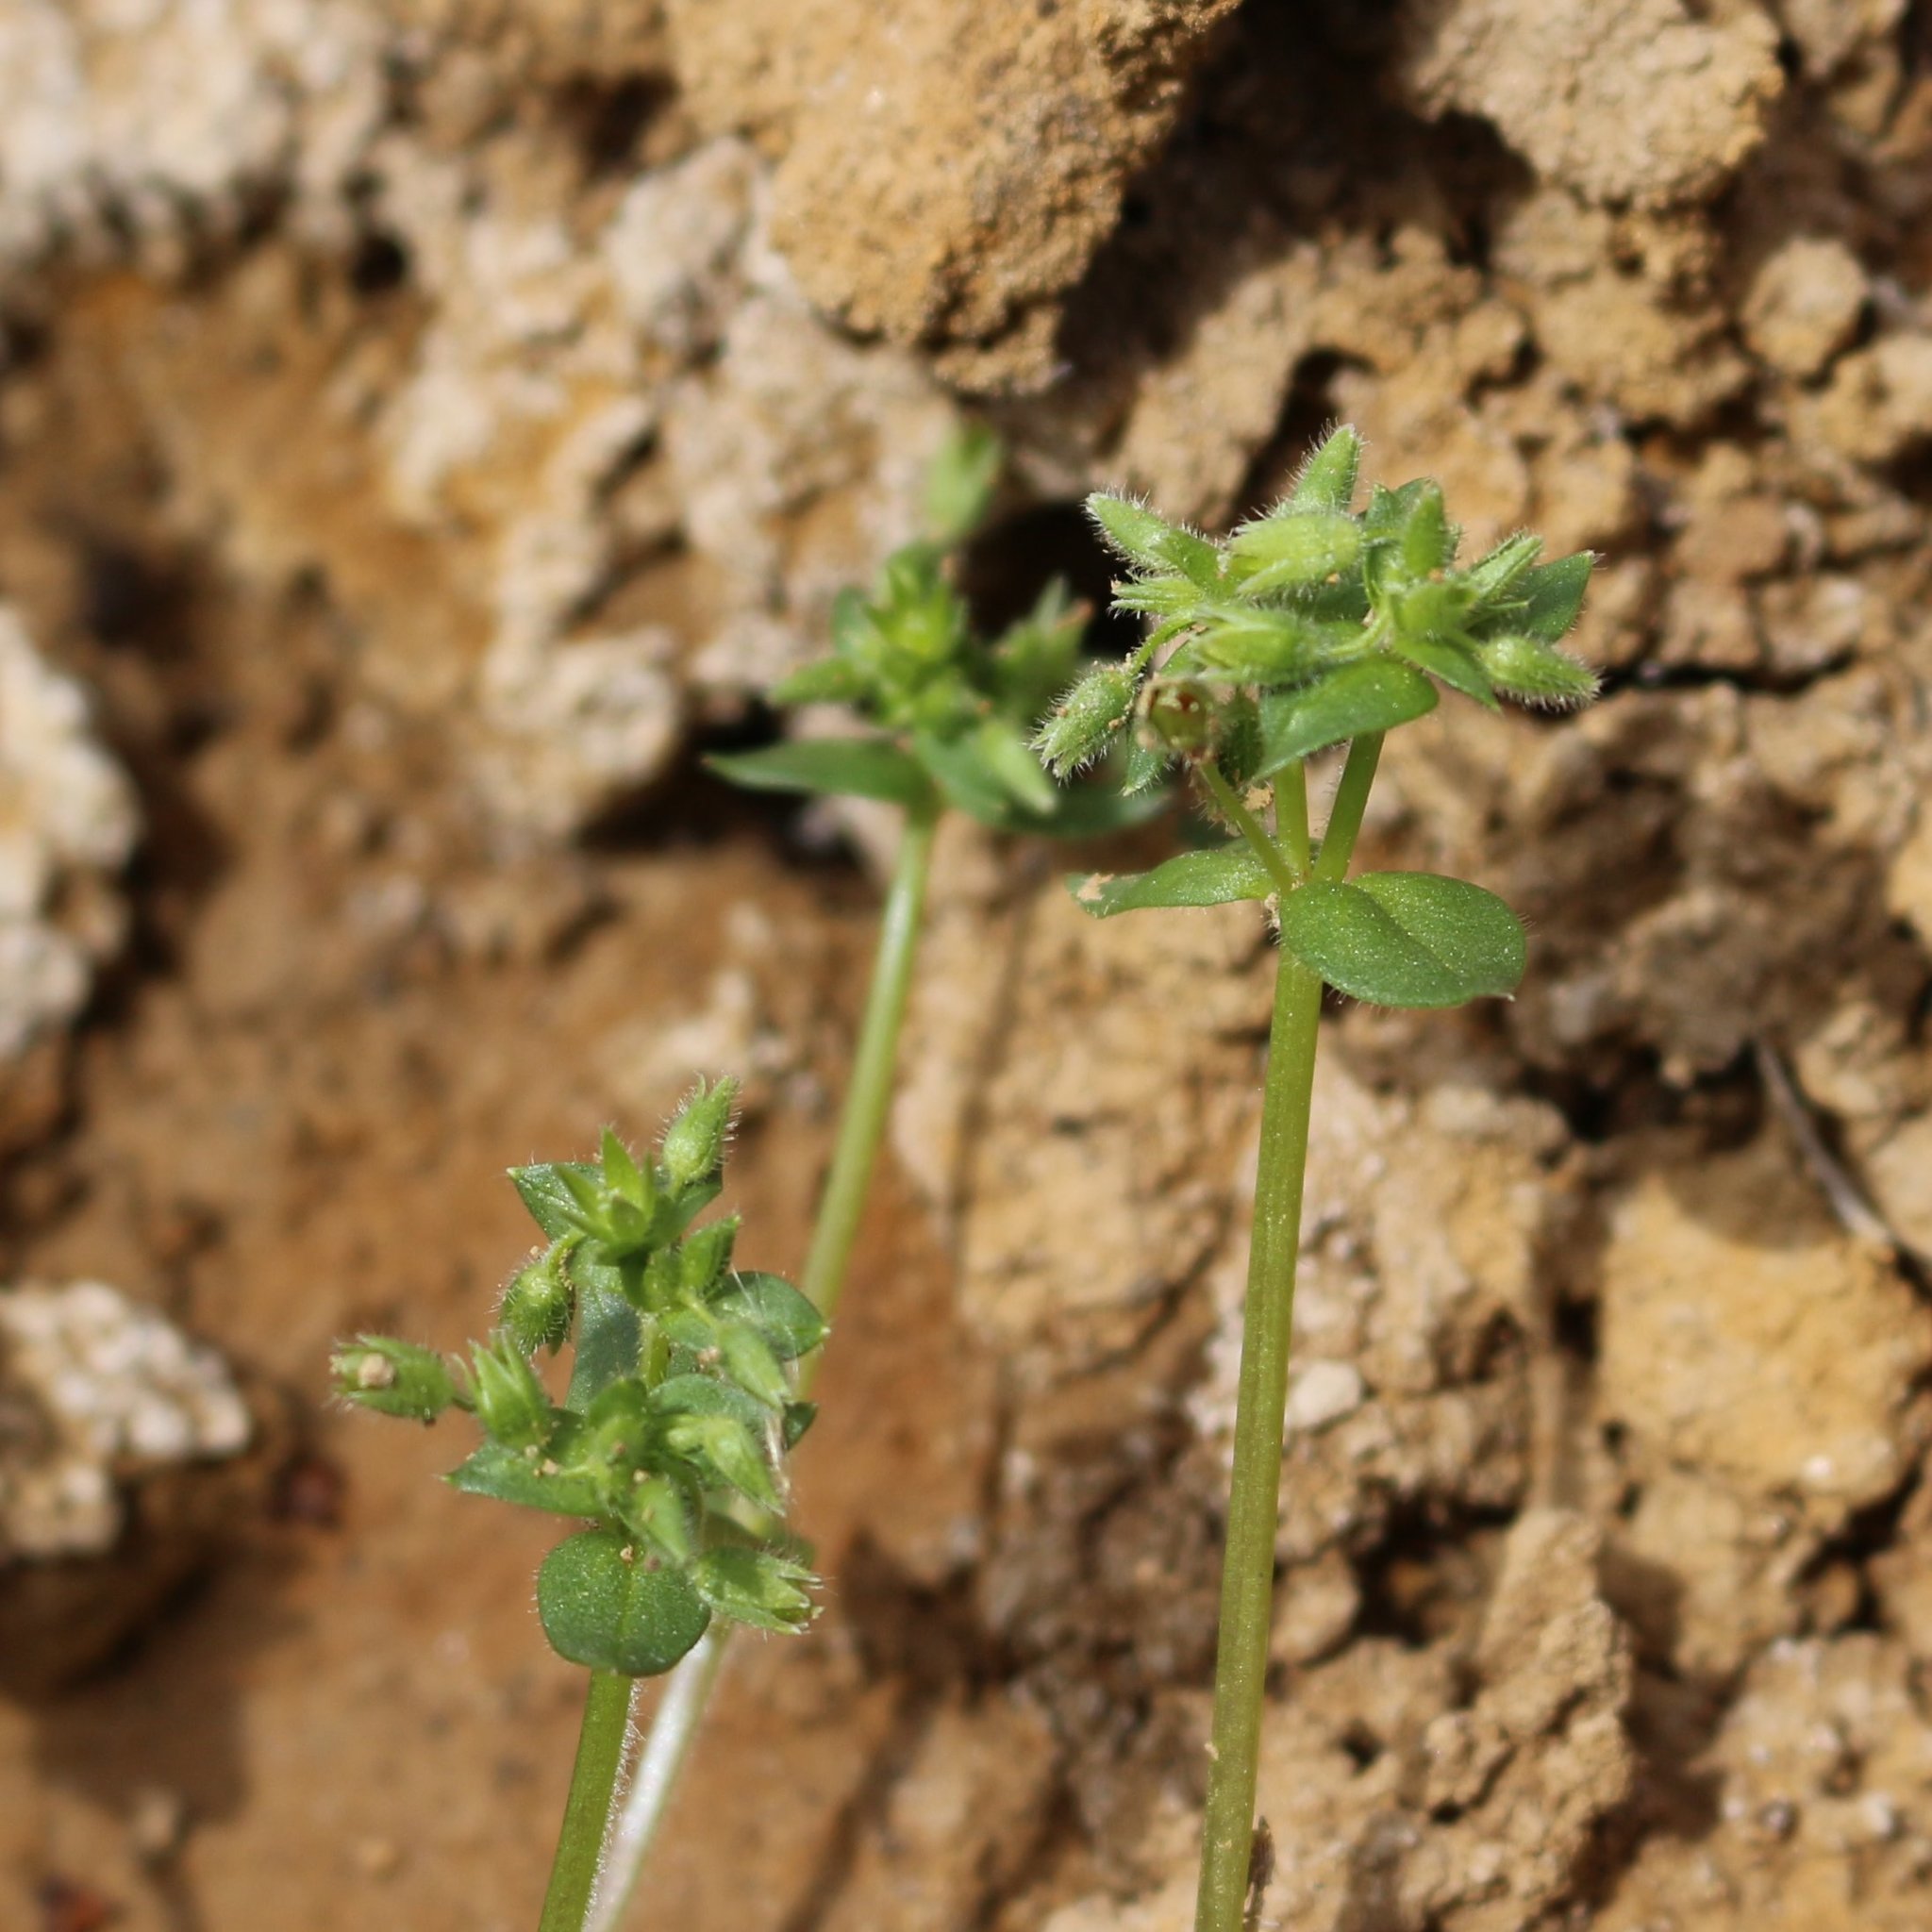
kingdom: Plantae
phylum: Tracheophyta
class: Magnoliopsida
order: Caryophyllales
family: Caryophyllaceae
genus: Stellaria
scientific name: Stellaria apetala
